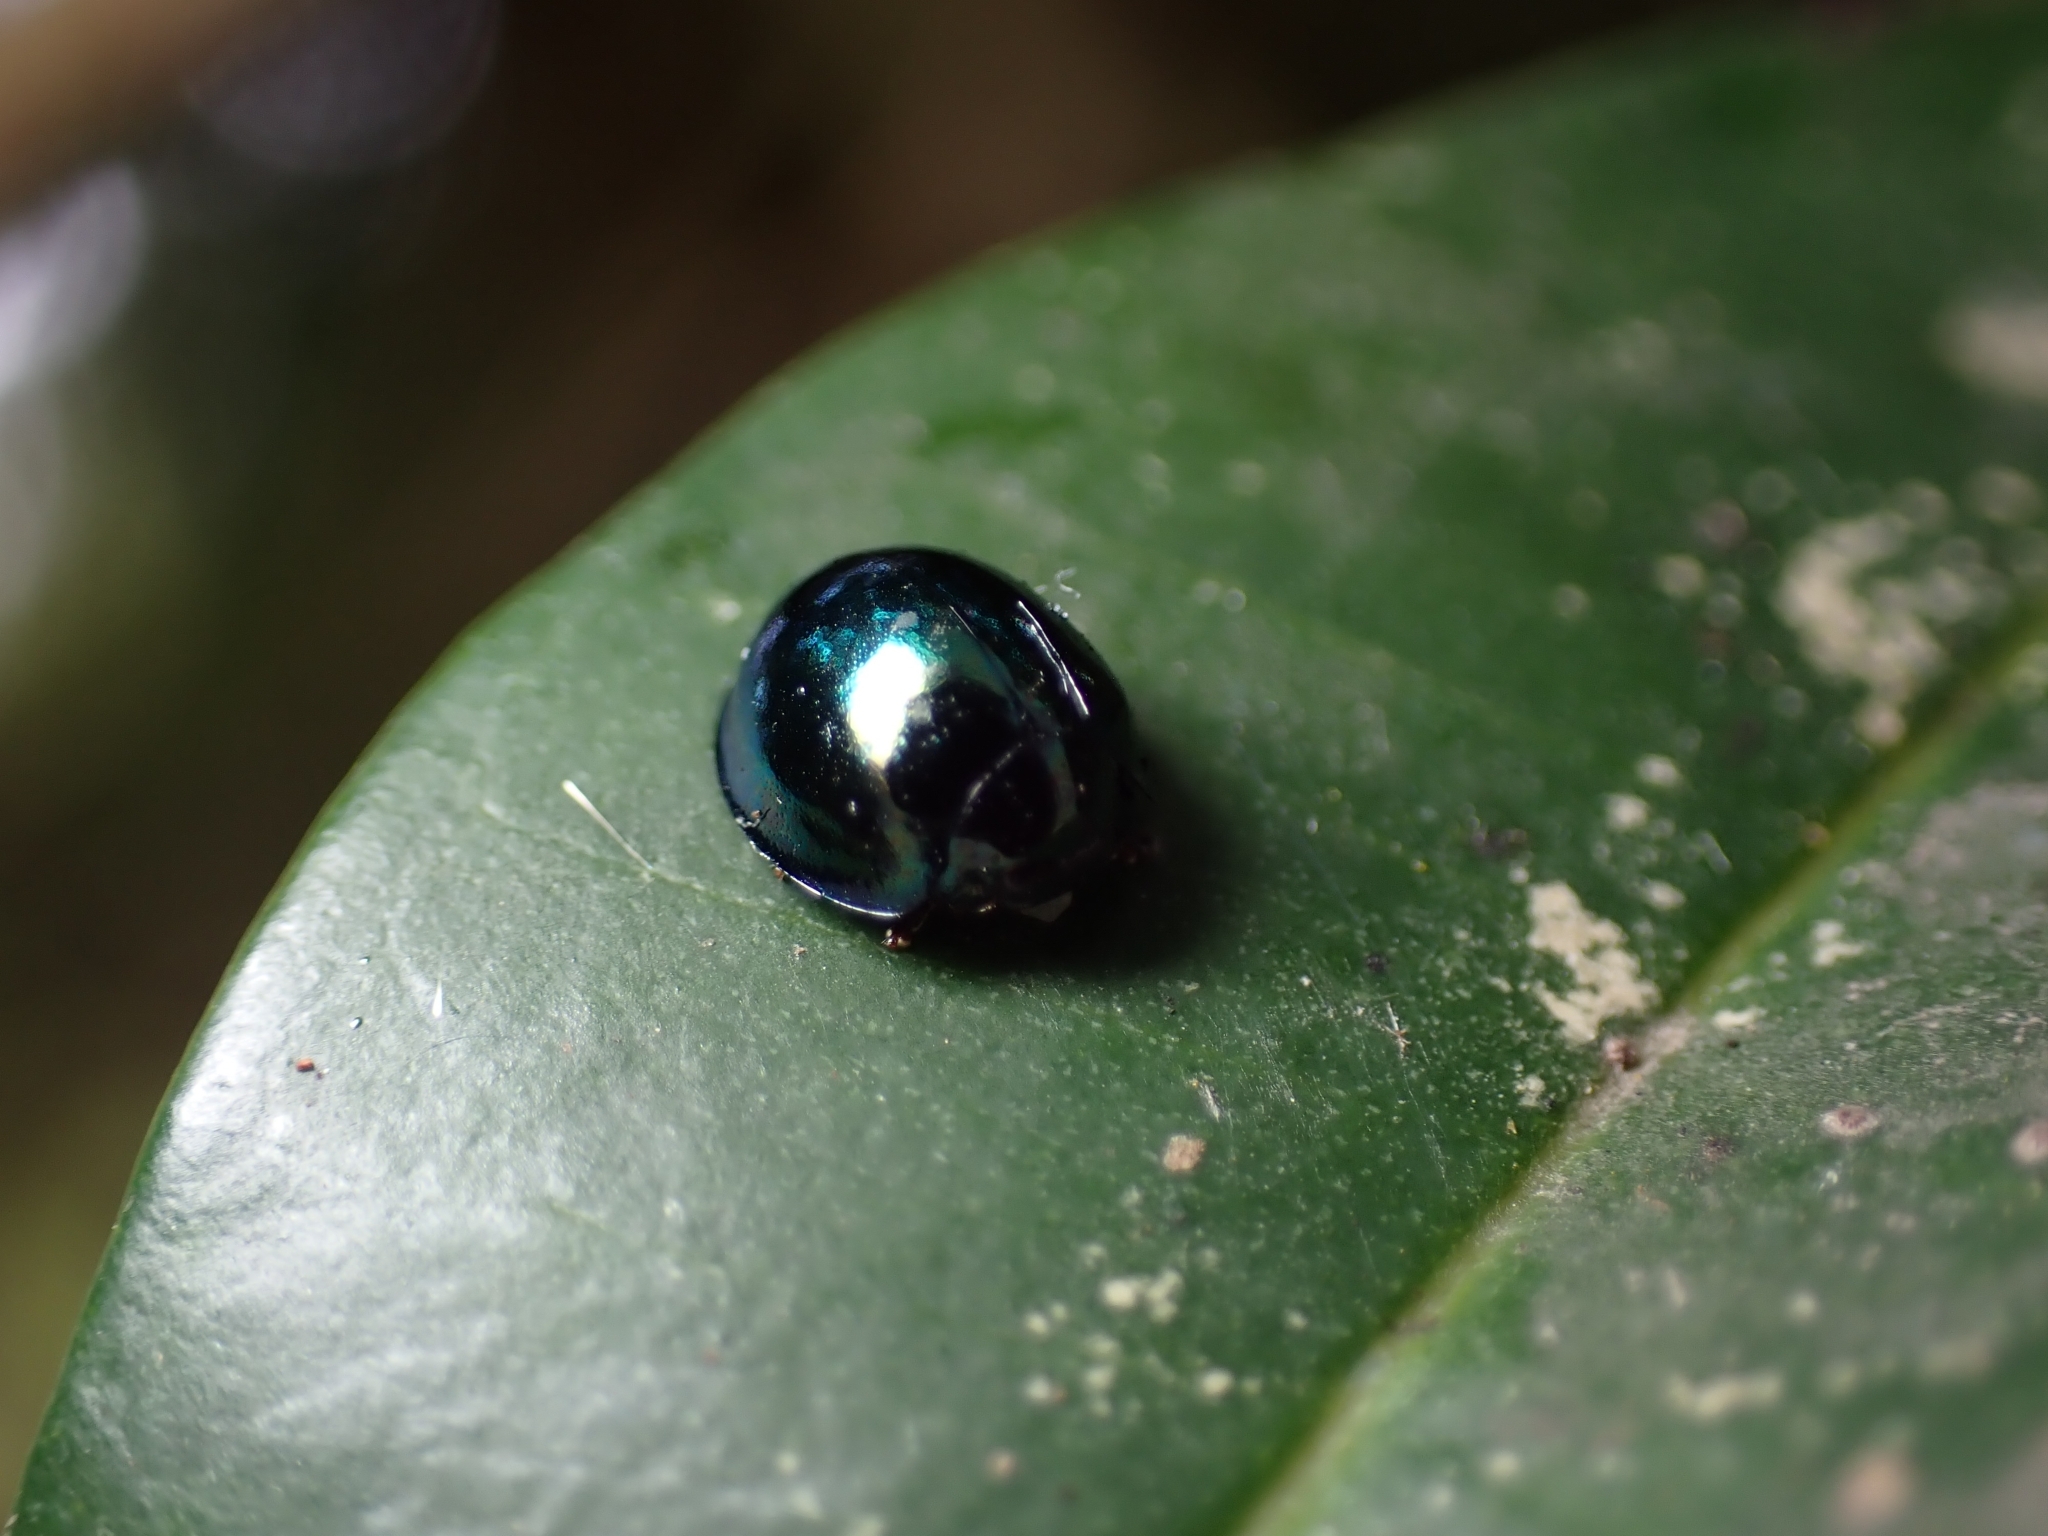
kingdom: Animalia
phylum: Arthropoda
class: Insecta
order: Coleoptera
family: Coccinellidae
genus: Halmus
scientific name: Halmus chalybeus
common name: Steel blue ladybird beetle
